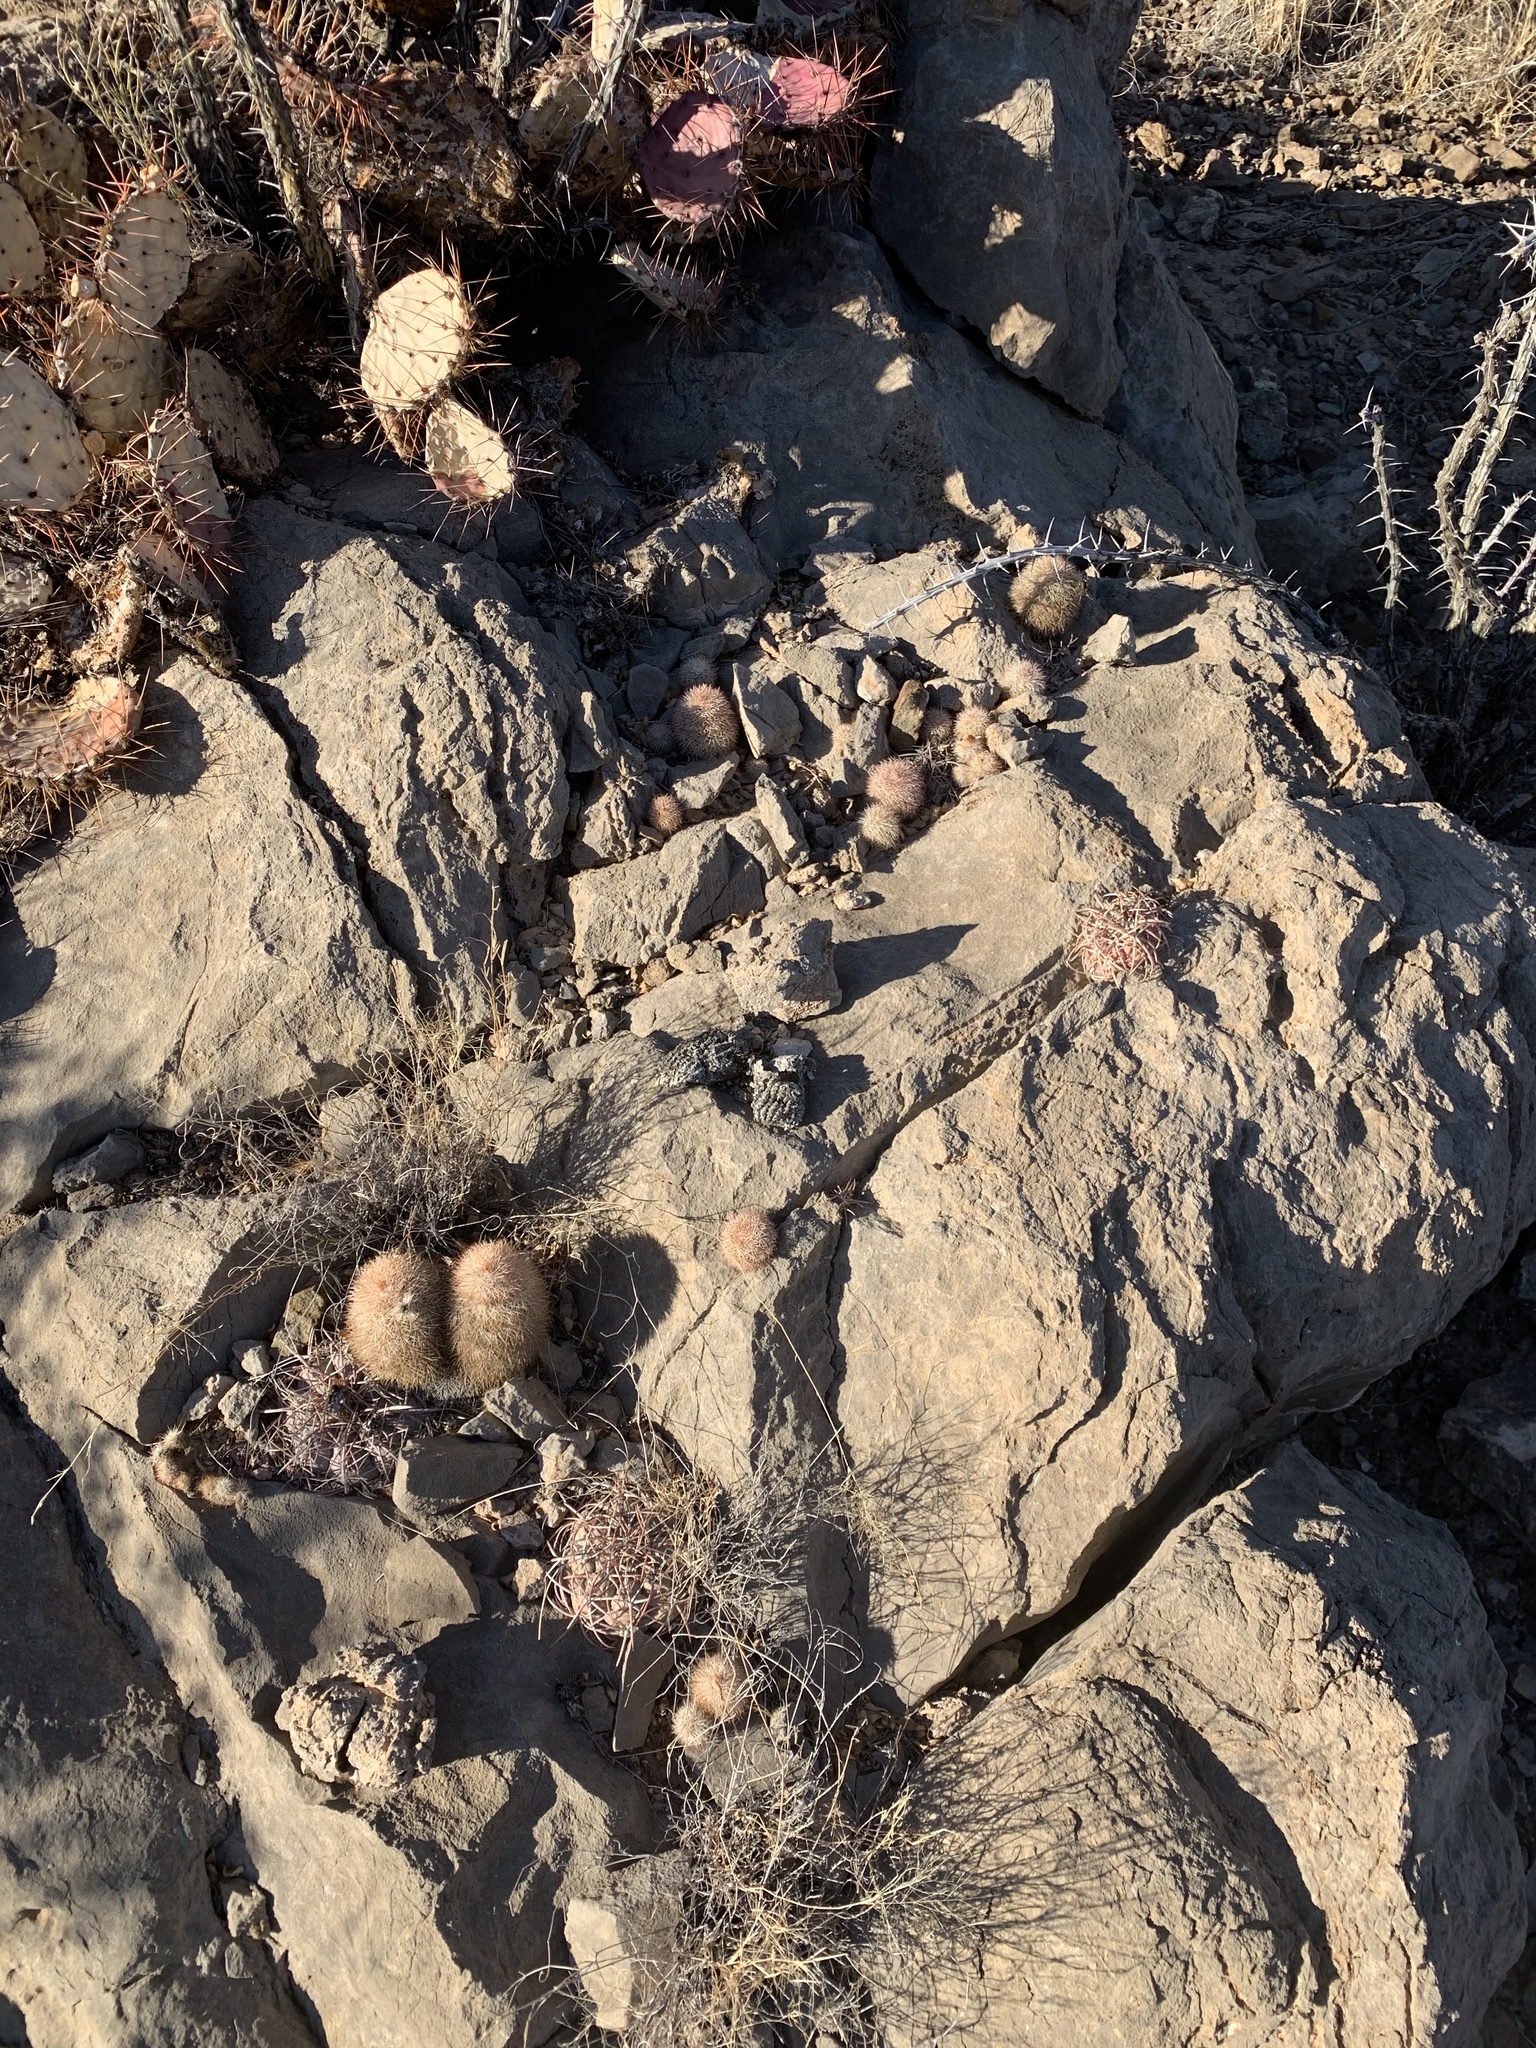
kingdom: Plantae
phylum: Tracheophyta
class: Magnoliopsida
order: Caryophyllales
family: Cactaceae
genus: Echinocereus
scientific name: Echinocereus dasyacanthus
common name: Spiny hedgehog cactus
